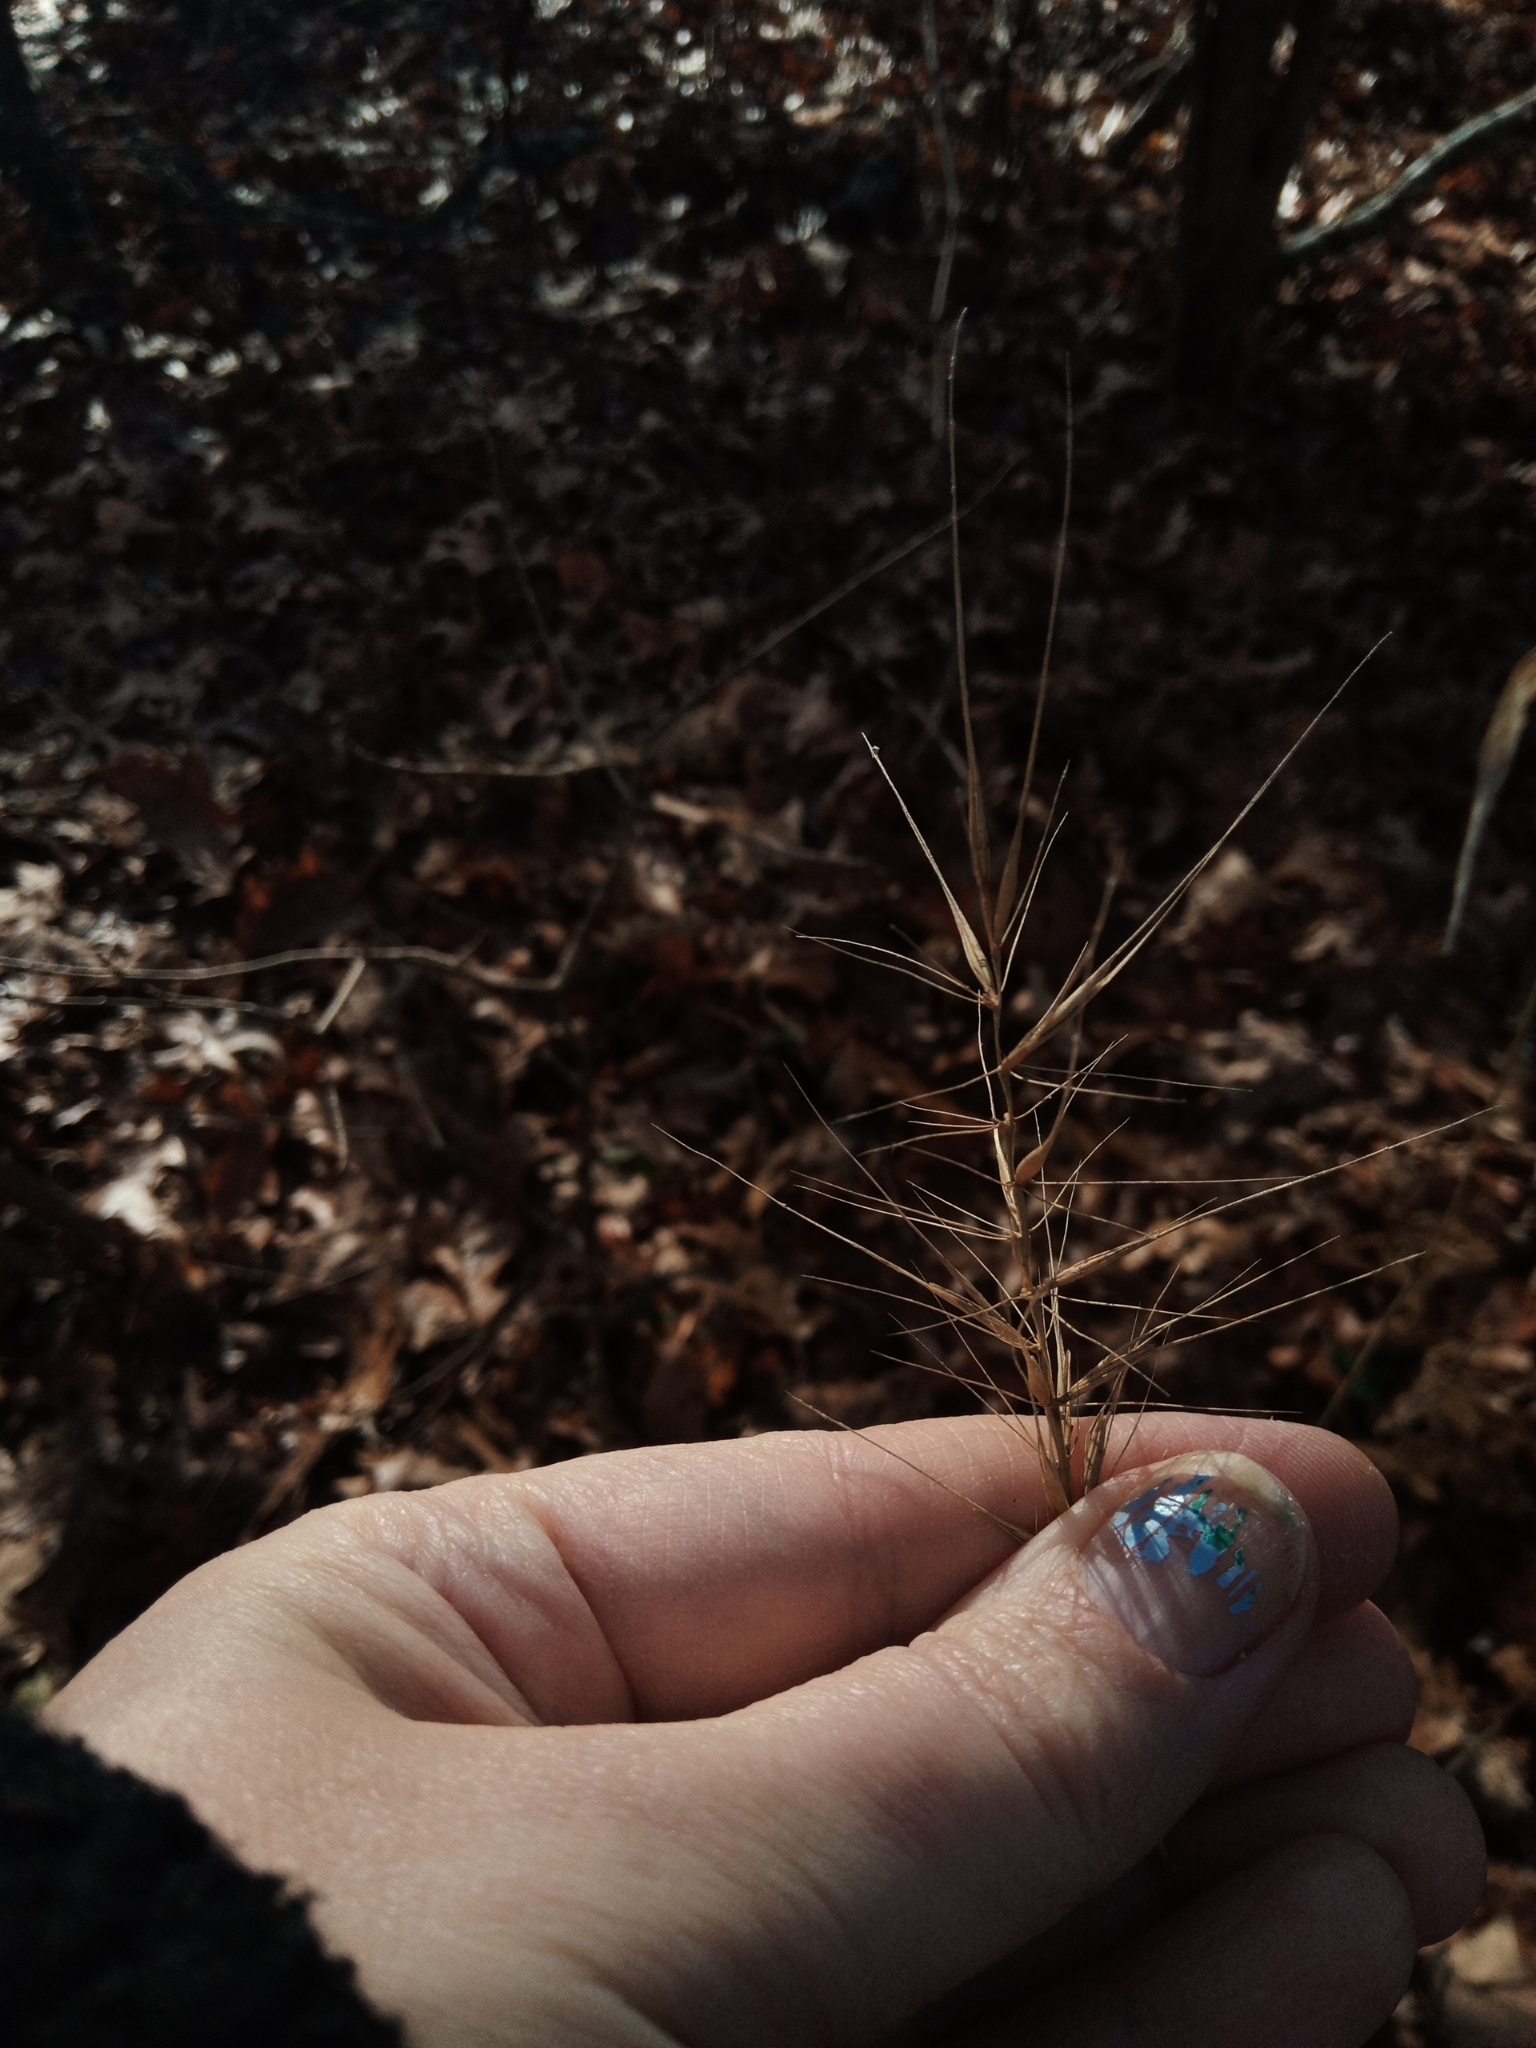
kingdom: Plantae
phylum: Tracheophyta
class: Liliopsida
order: Poales
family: Poaceae
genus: Elymus
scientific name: Elymus hystrix
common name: Bottlebrush grass
